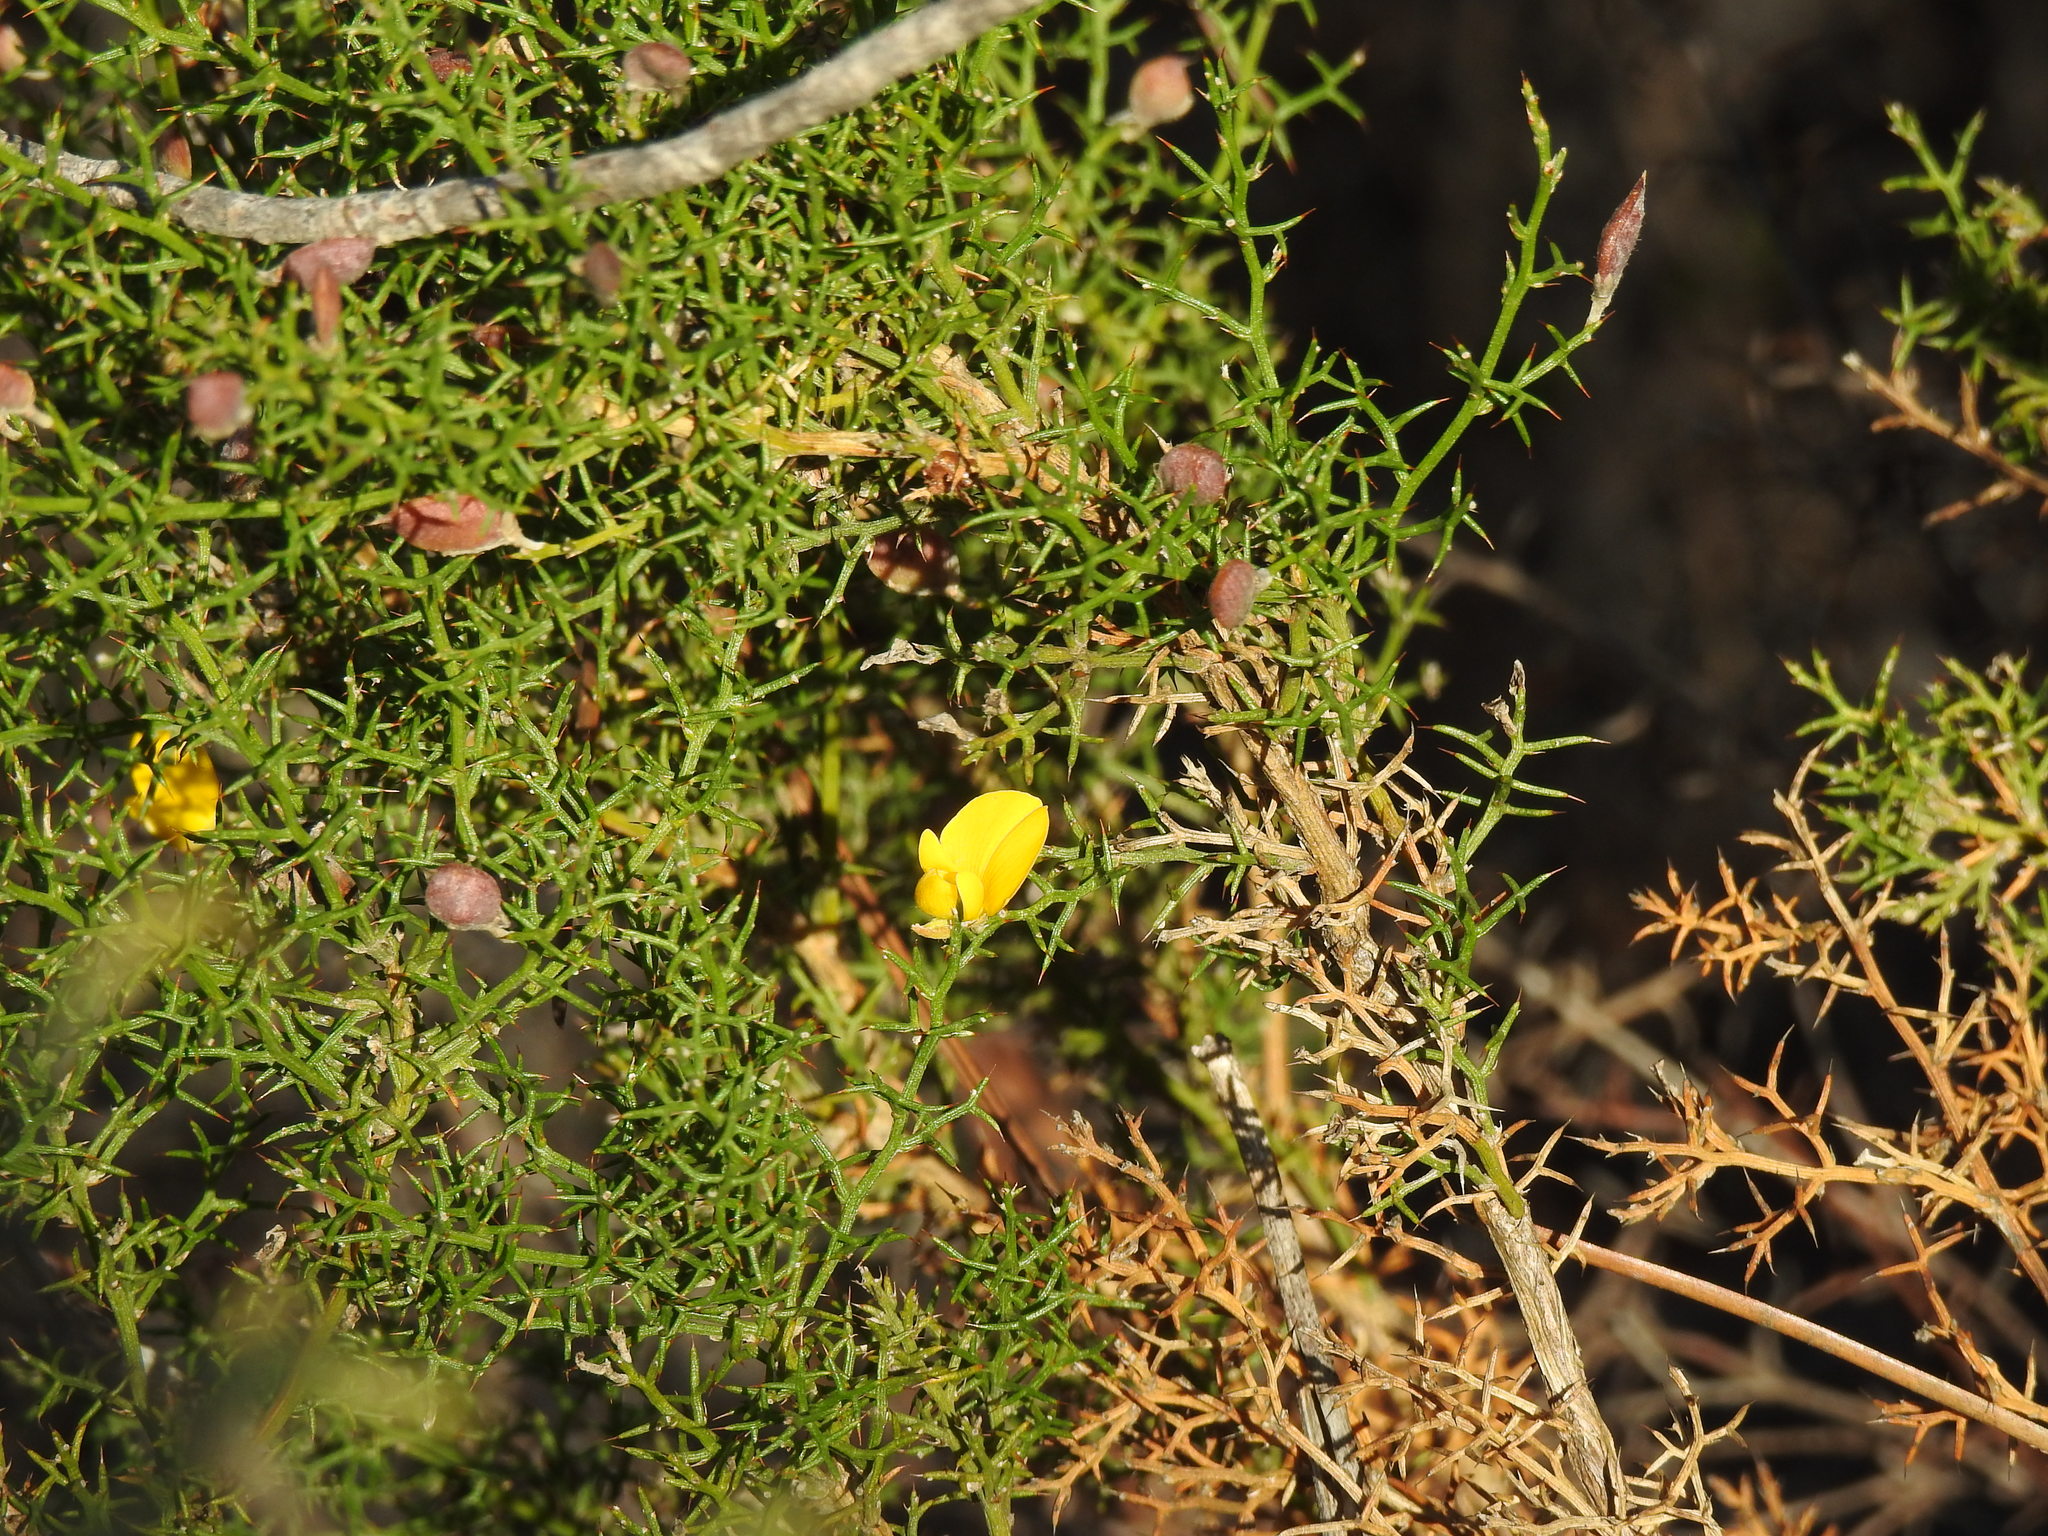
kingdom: Plantae
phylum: Tracheophyta
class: Magnoliopsida
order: Fabales
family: Fabaceae
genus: Stauracanthus
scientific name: Stauracanthus boivinii
